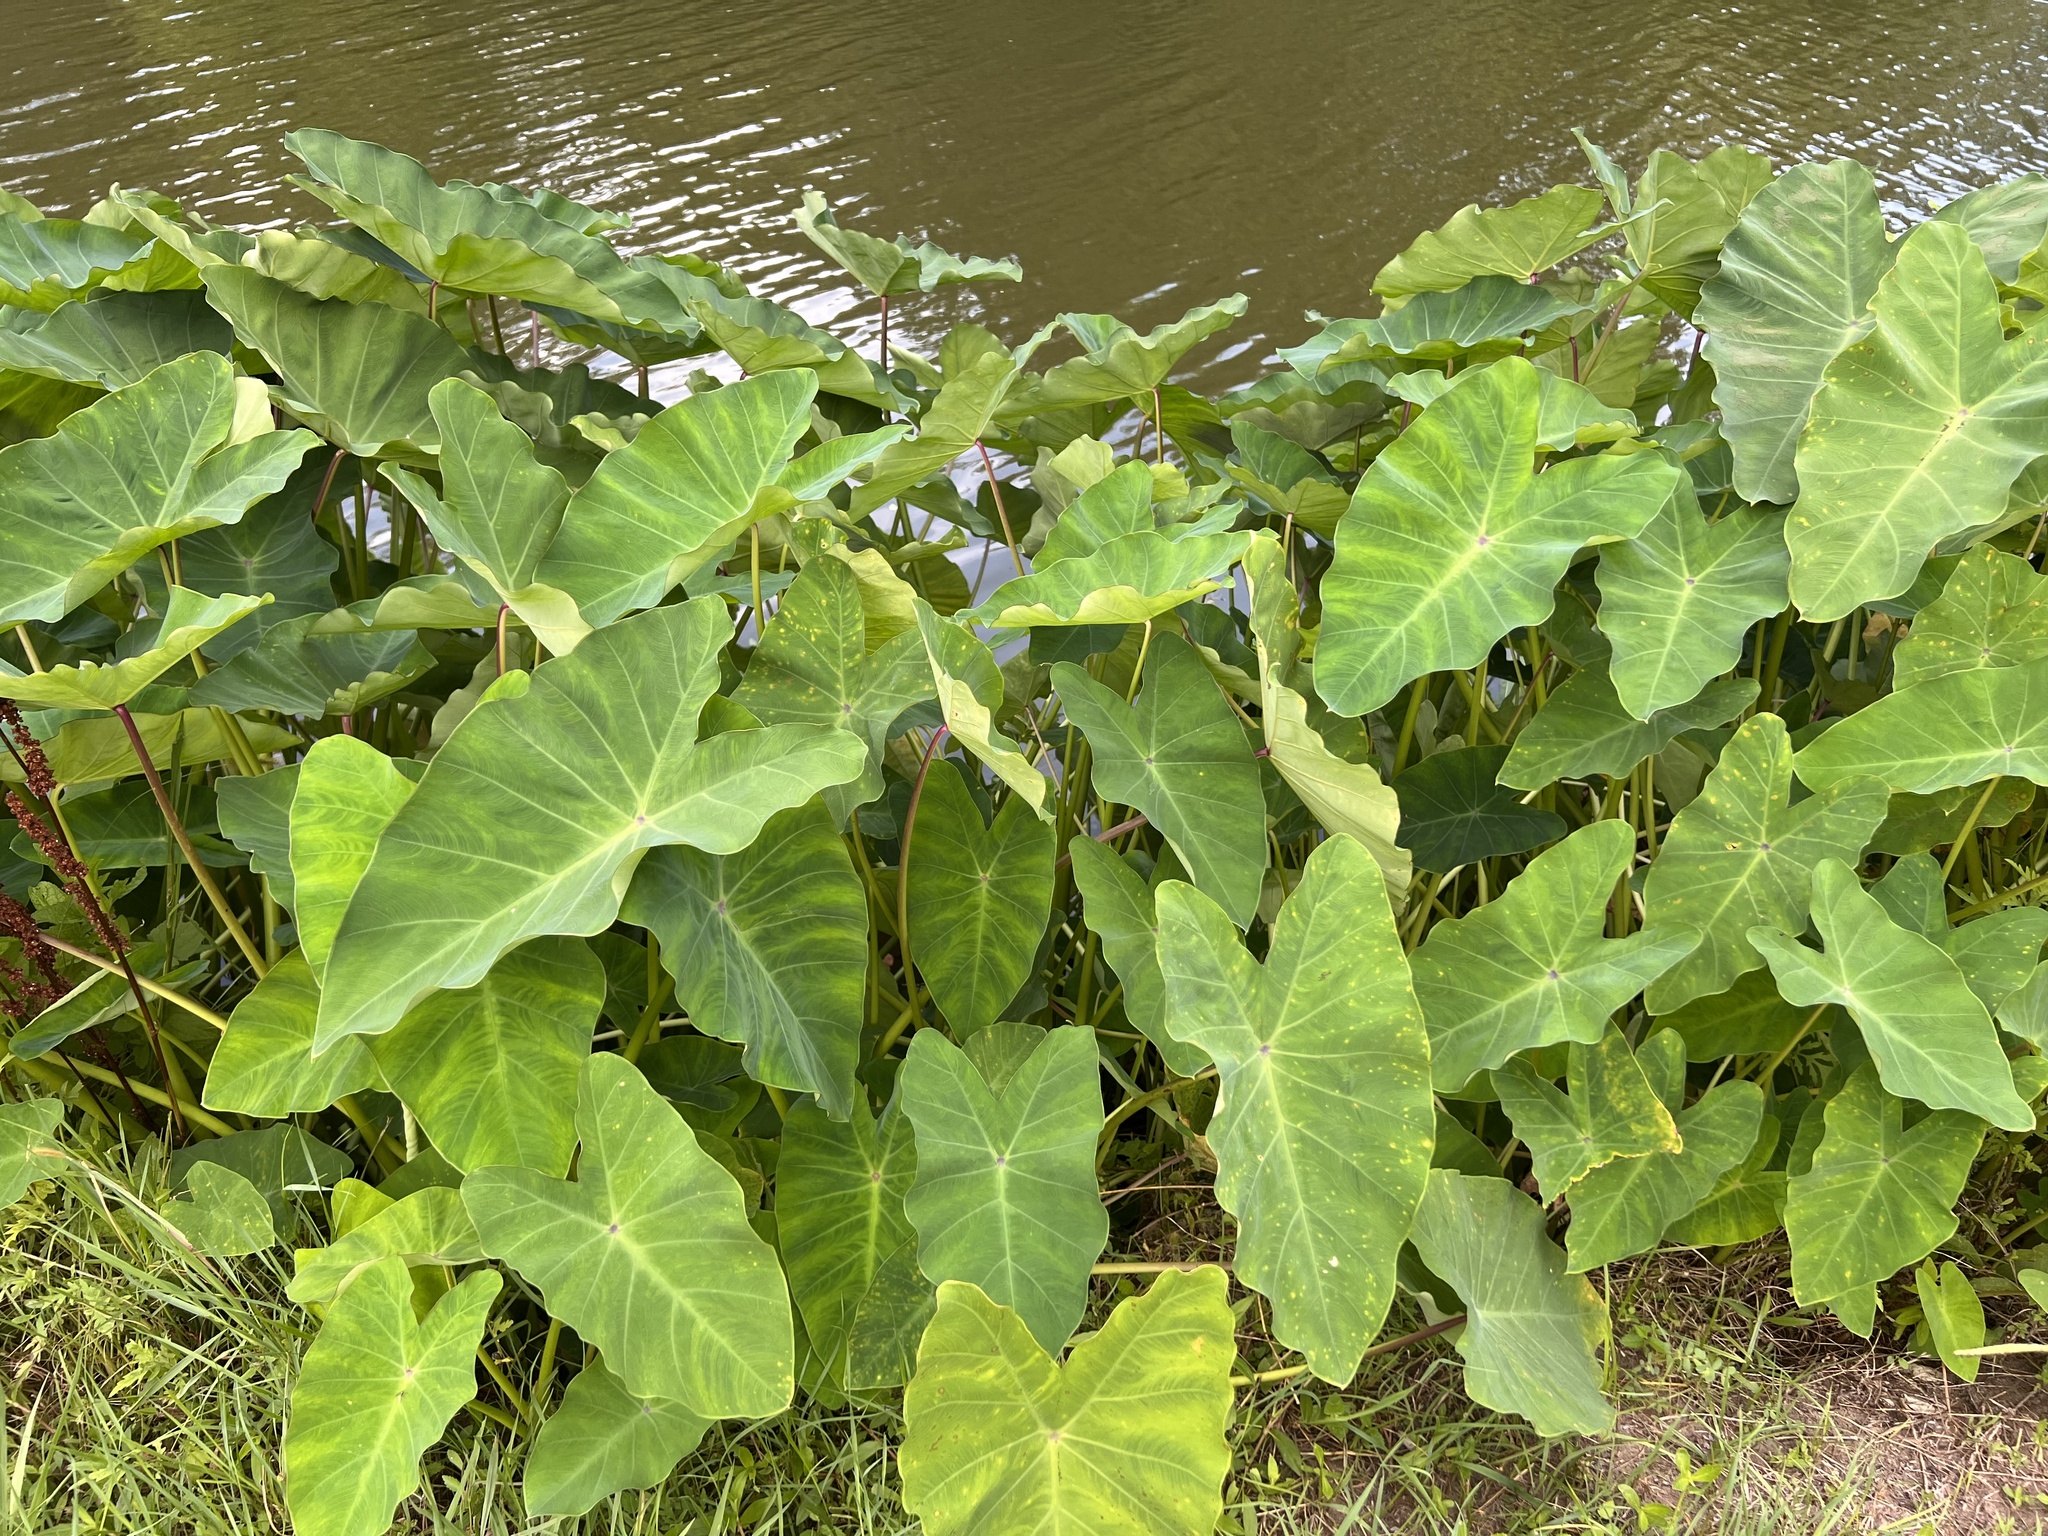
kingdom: Plantae
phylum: Tracheophyta
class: Liliopsida
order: Alismatales
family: Araceae
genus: Colocasia
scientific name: Colocasia esculenta
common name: Taro
